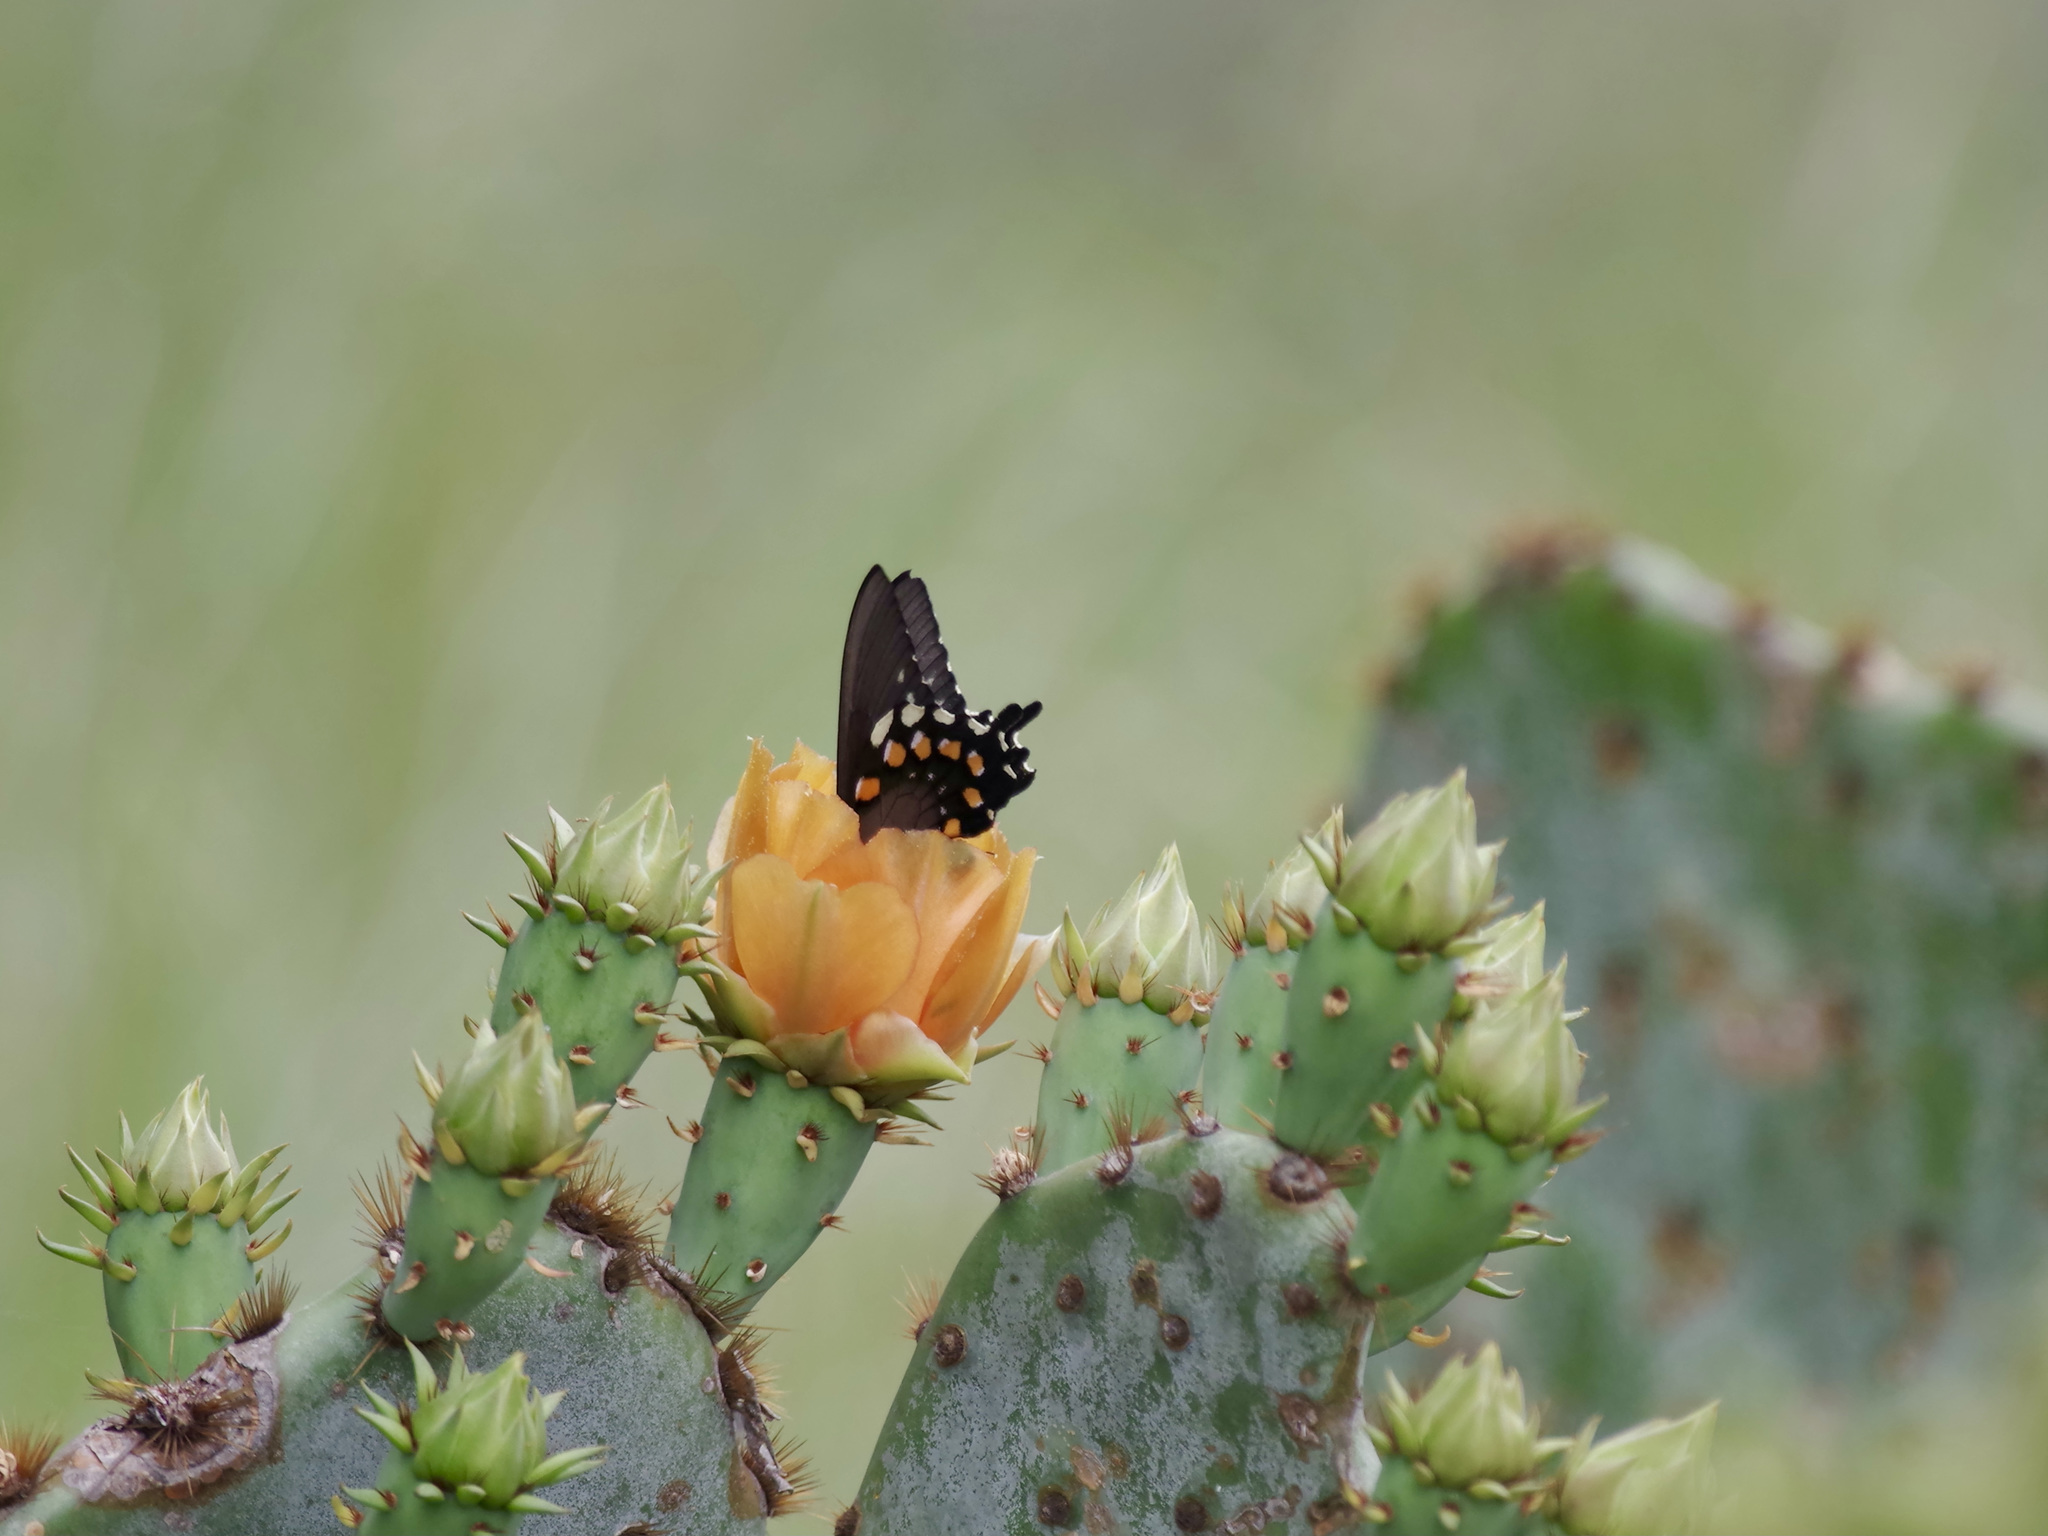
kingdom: Animalia
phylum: Arthropoda
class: Insecta
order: Lepidoptera
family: Papilionidae
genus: Battus
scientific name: Battus philenor
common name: Pipevine swallowtail
